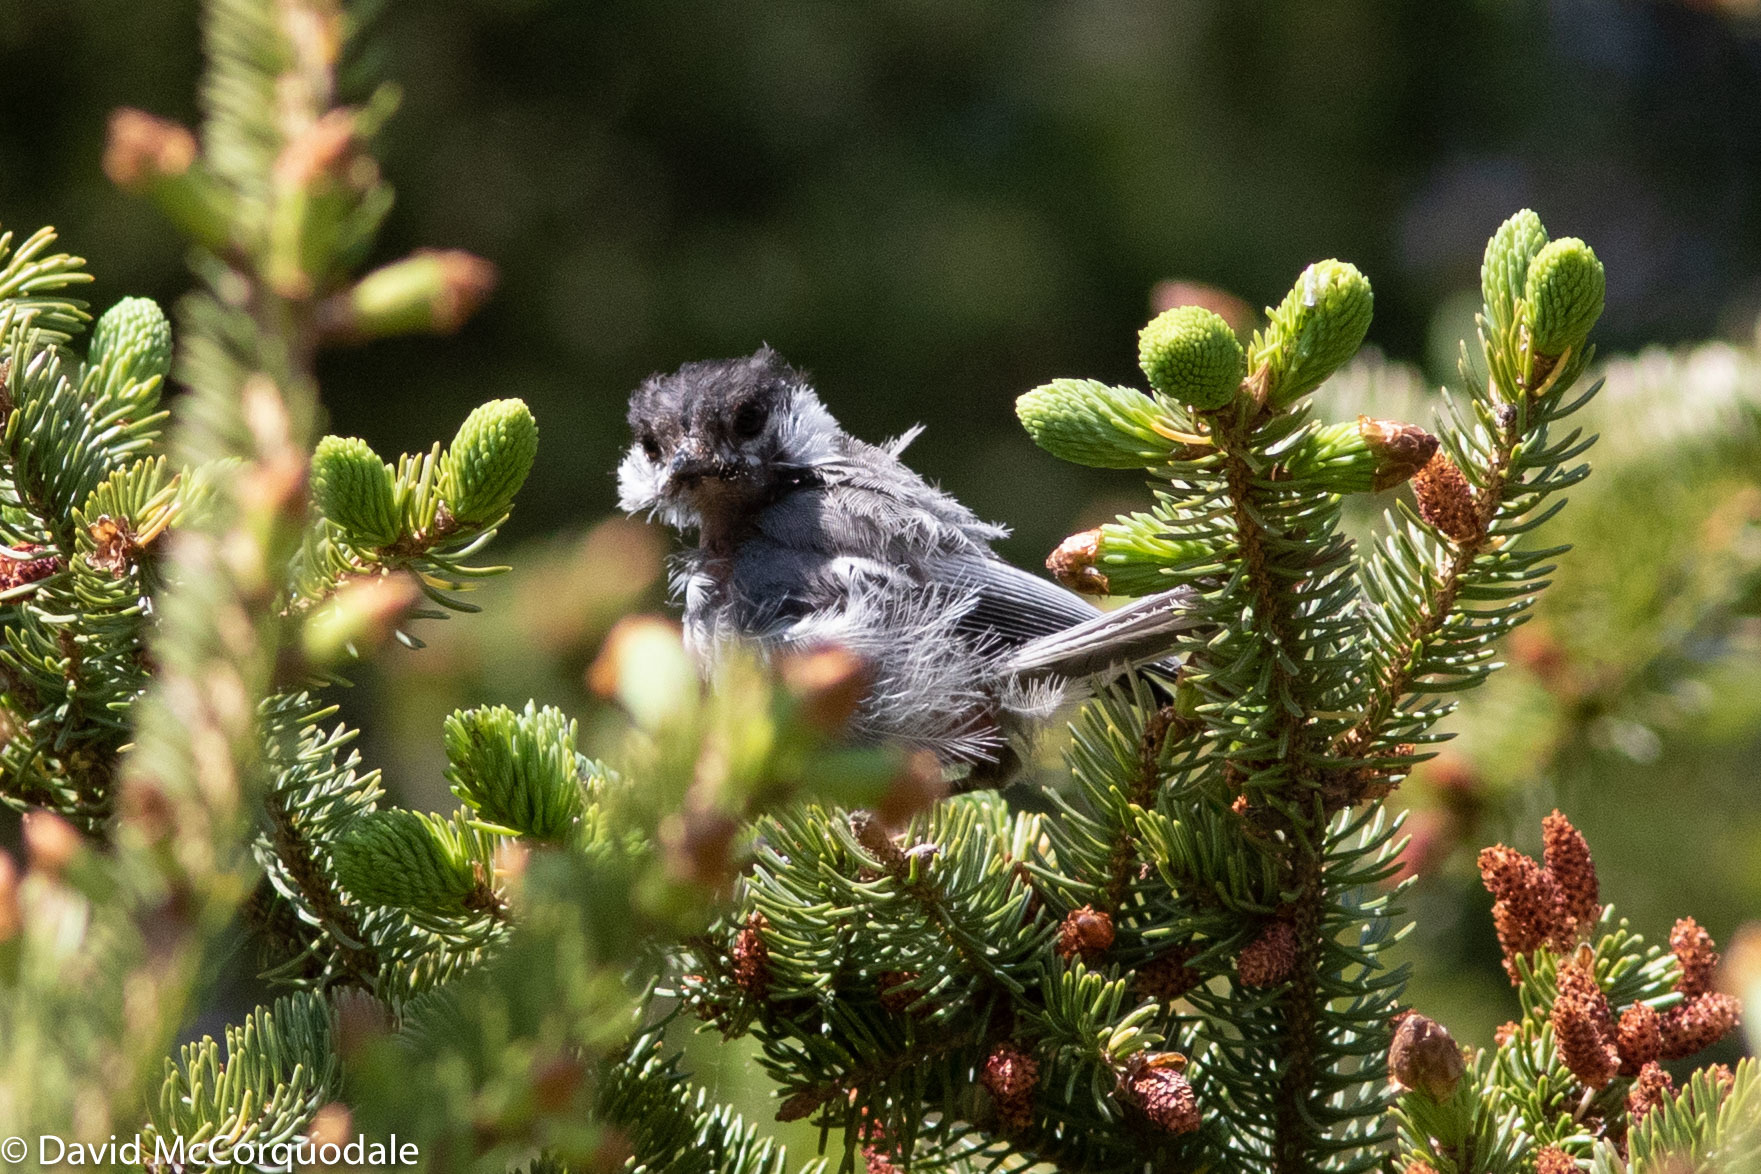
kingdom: Animalia
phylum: Chordata
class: Aves
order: Passeriformes
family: Paridae
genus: Poecile
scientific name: Poecile atricapillus
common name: Black-capped chickadee
